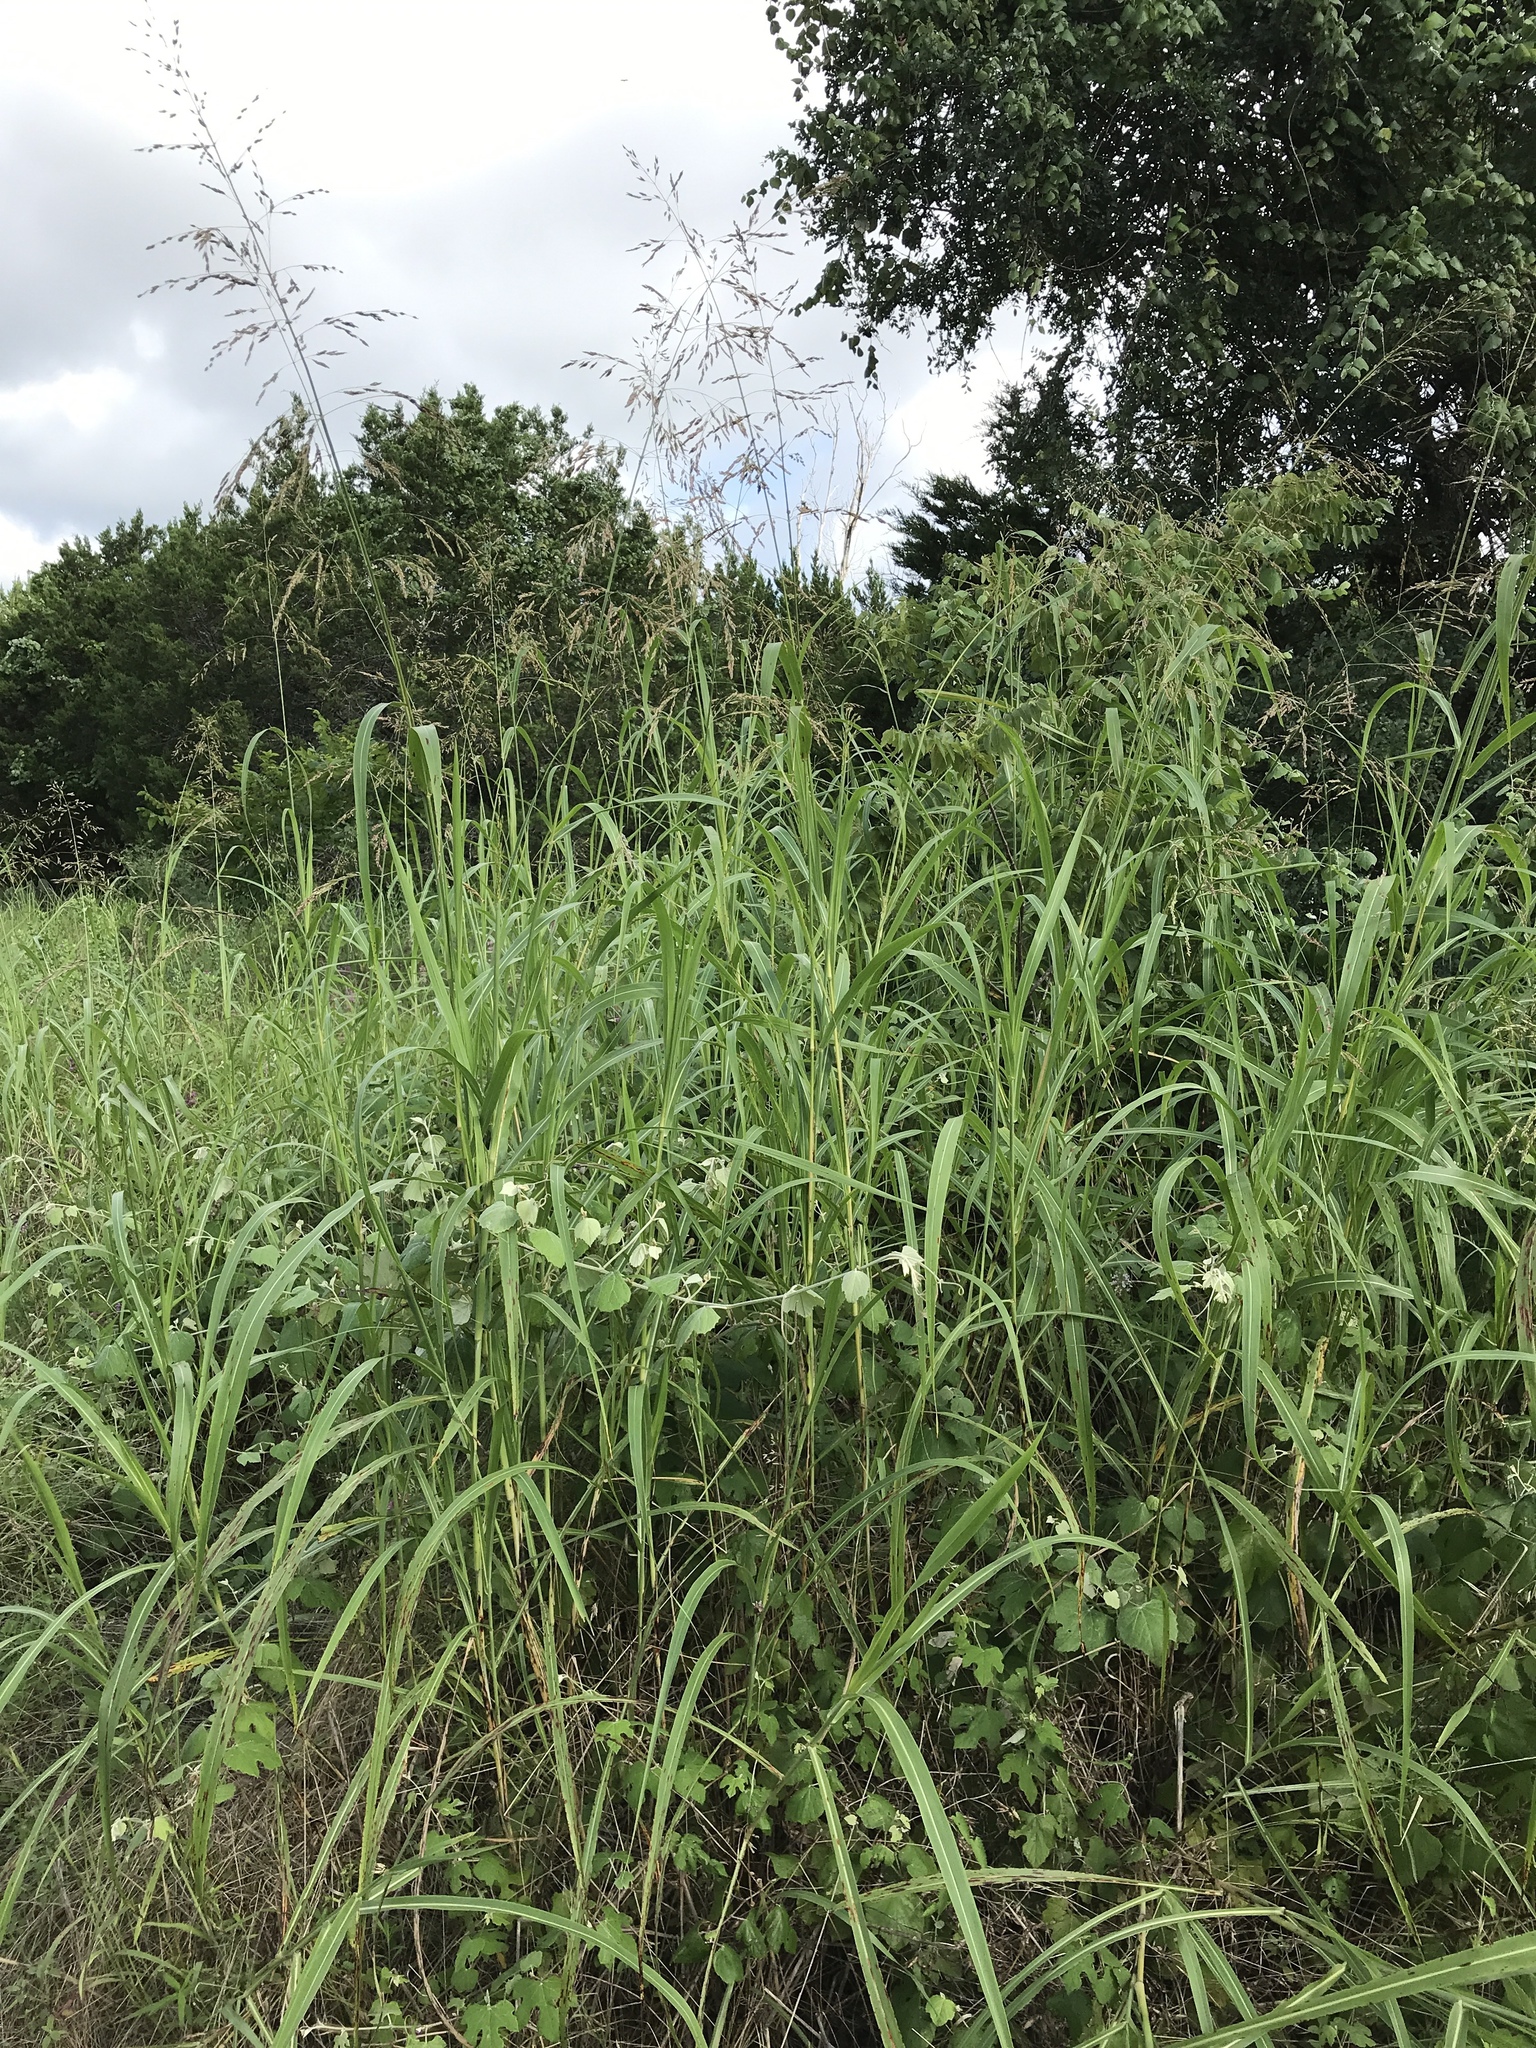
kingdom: Plantae
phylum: Tracheophyta
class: Liliopsida
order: Poales
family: Poaceae
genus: Sorghum
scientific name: Sorghum halepense
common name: Johnson-grass
